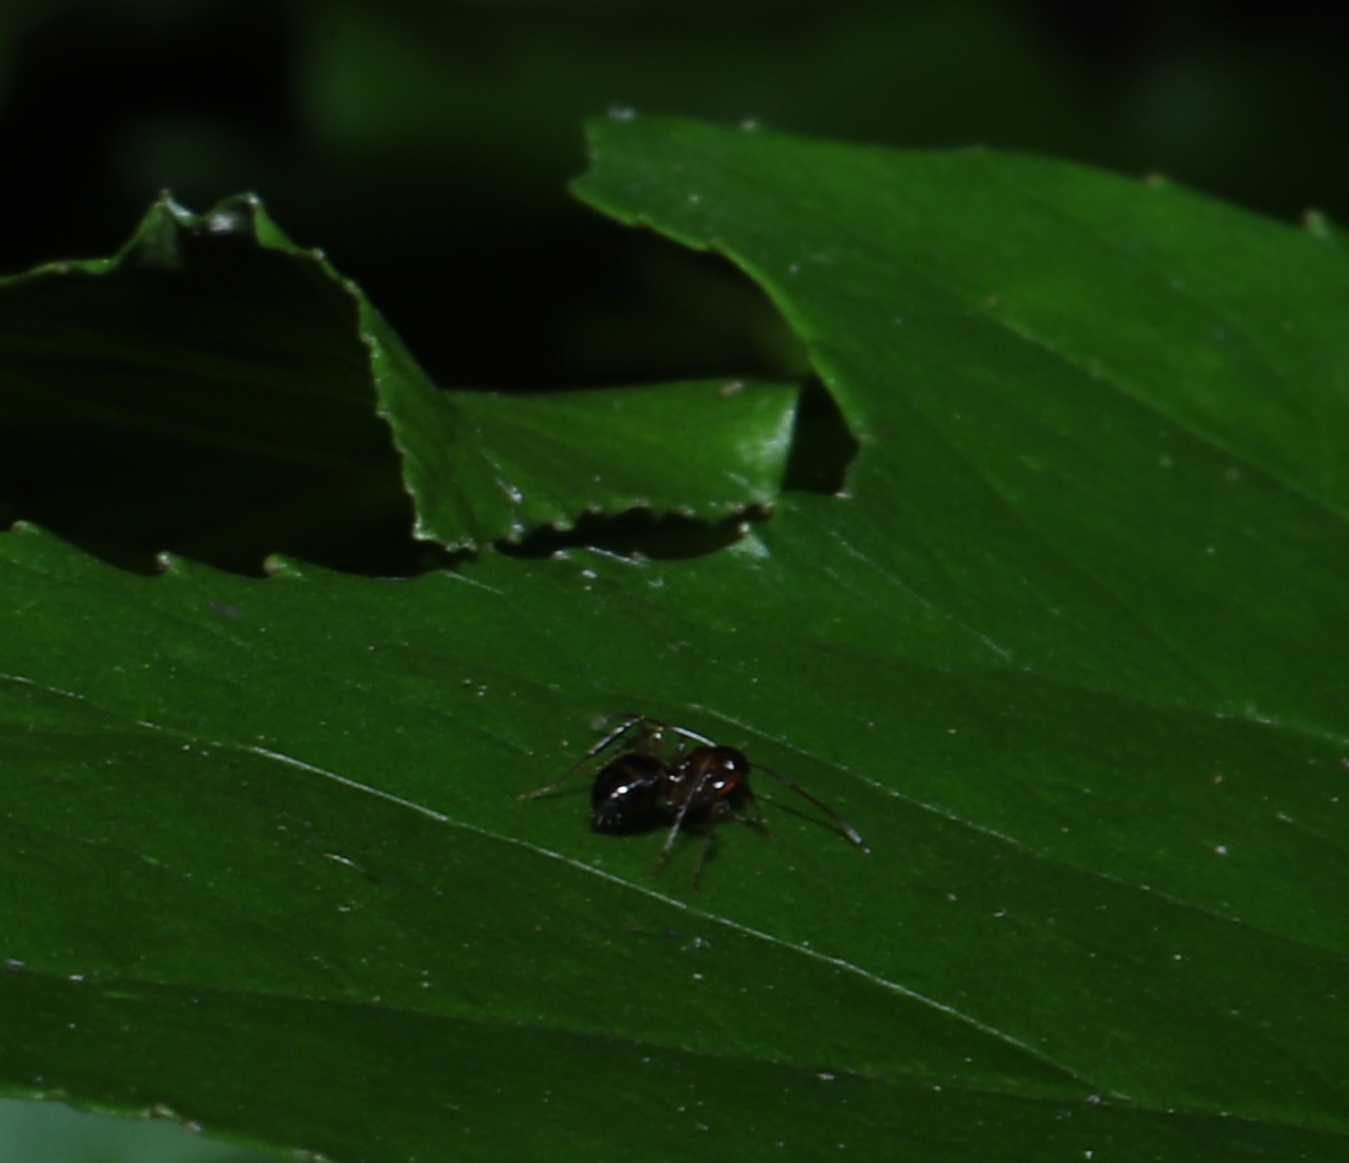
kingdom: Animalia
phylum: Arthropoda
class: Insecta
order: Hymenoptera
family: Formicidae
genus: Camponotus
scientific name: Camponotus subbarbatus
